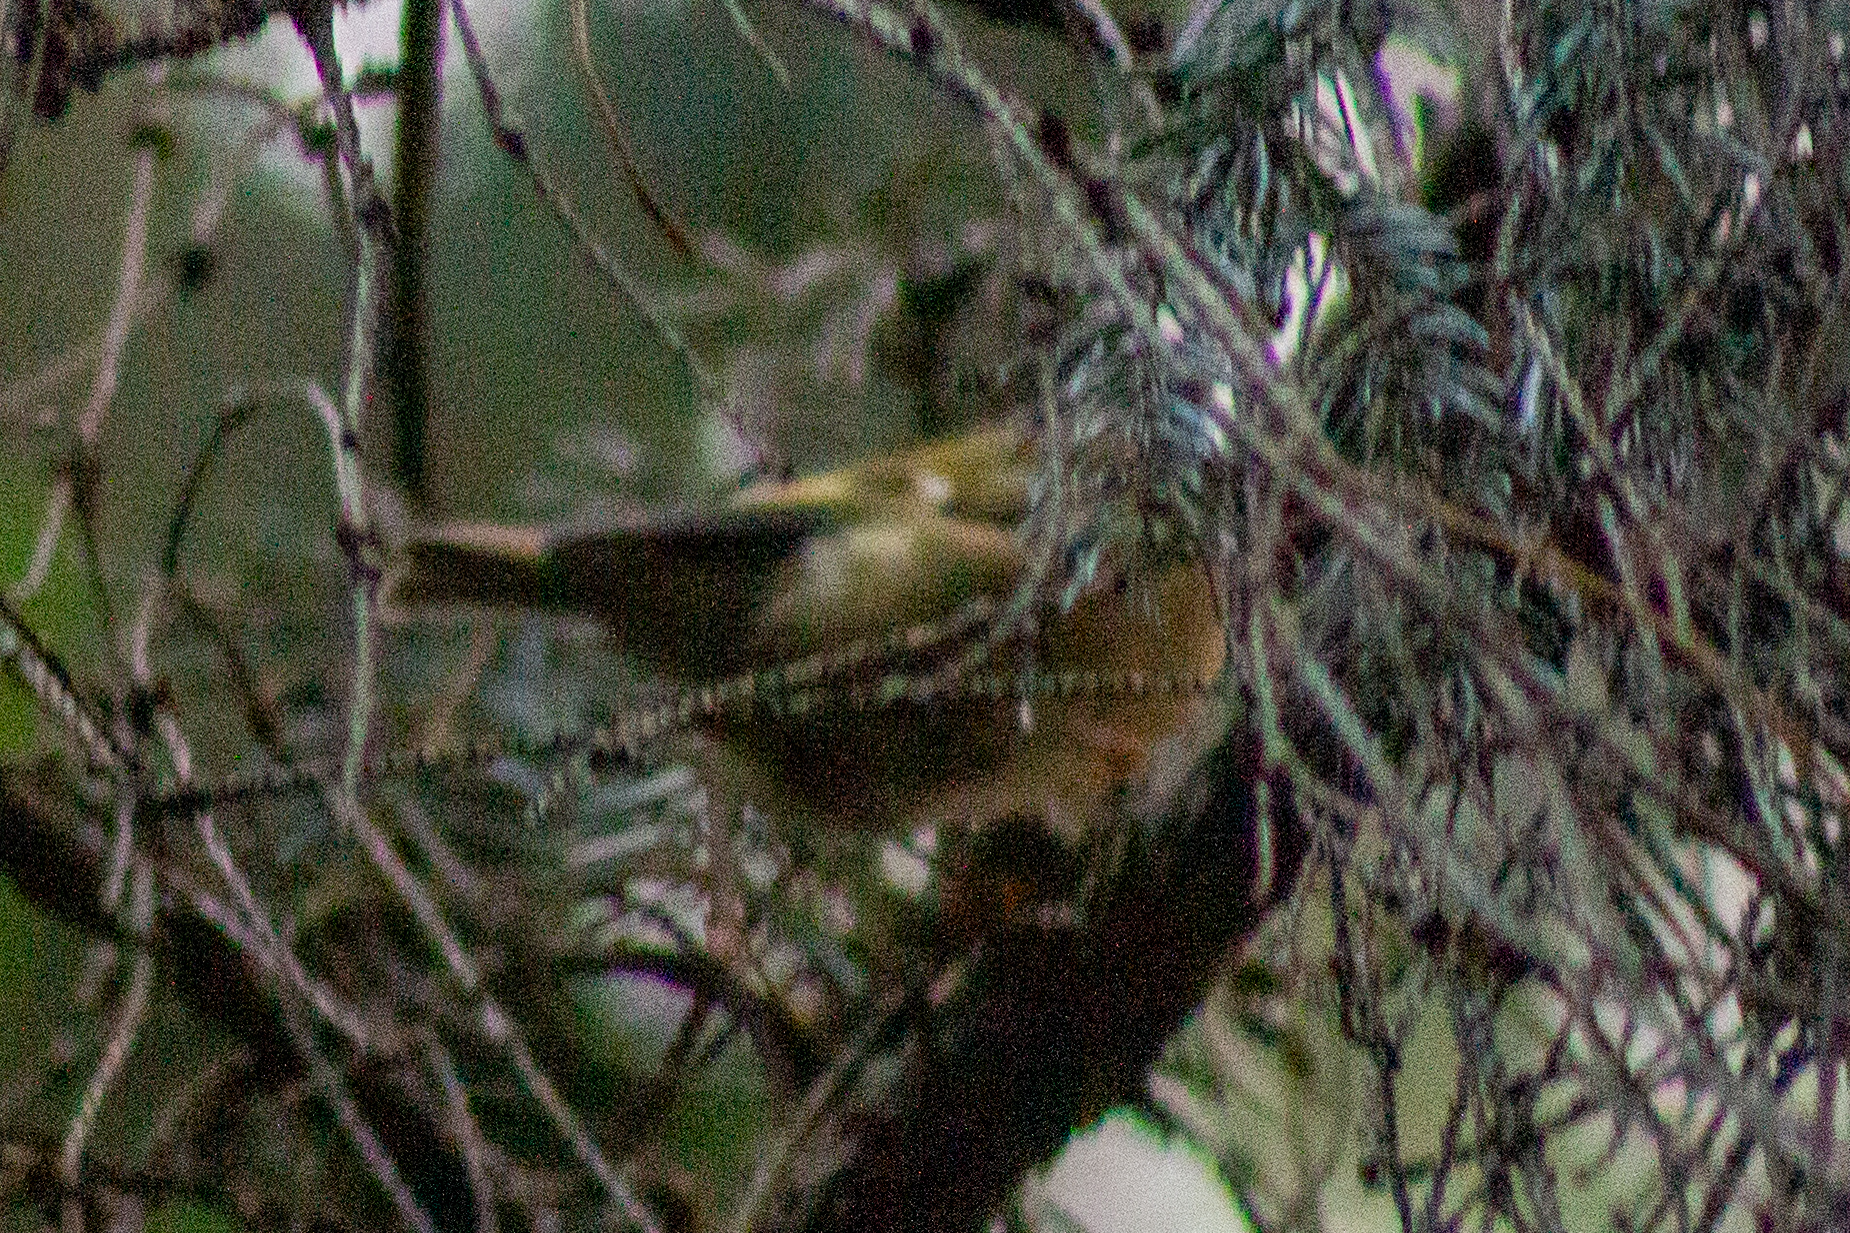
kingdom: Animalia
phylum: Chordata
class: Aves
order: Passeriformes
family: Regulidae
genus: Regulus
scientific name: Regulus regulus
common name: Goldcrest
